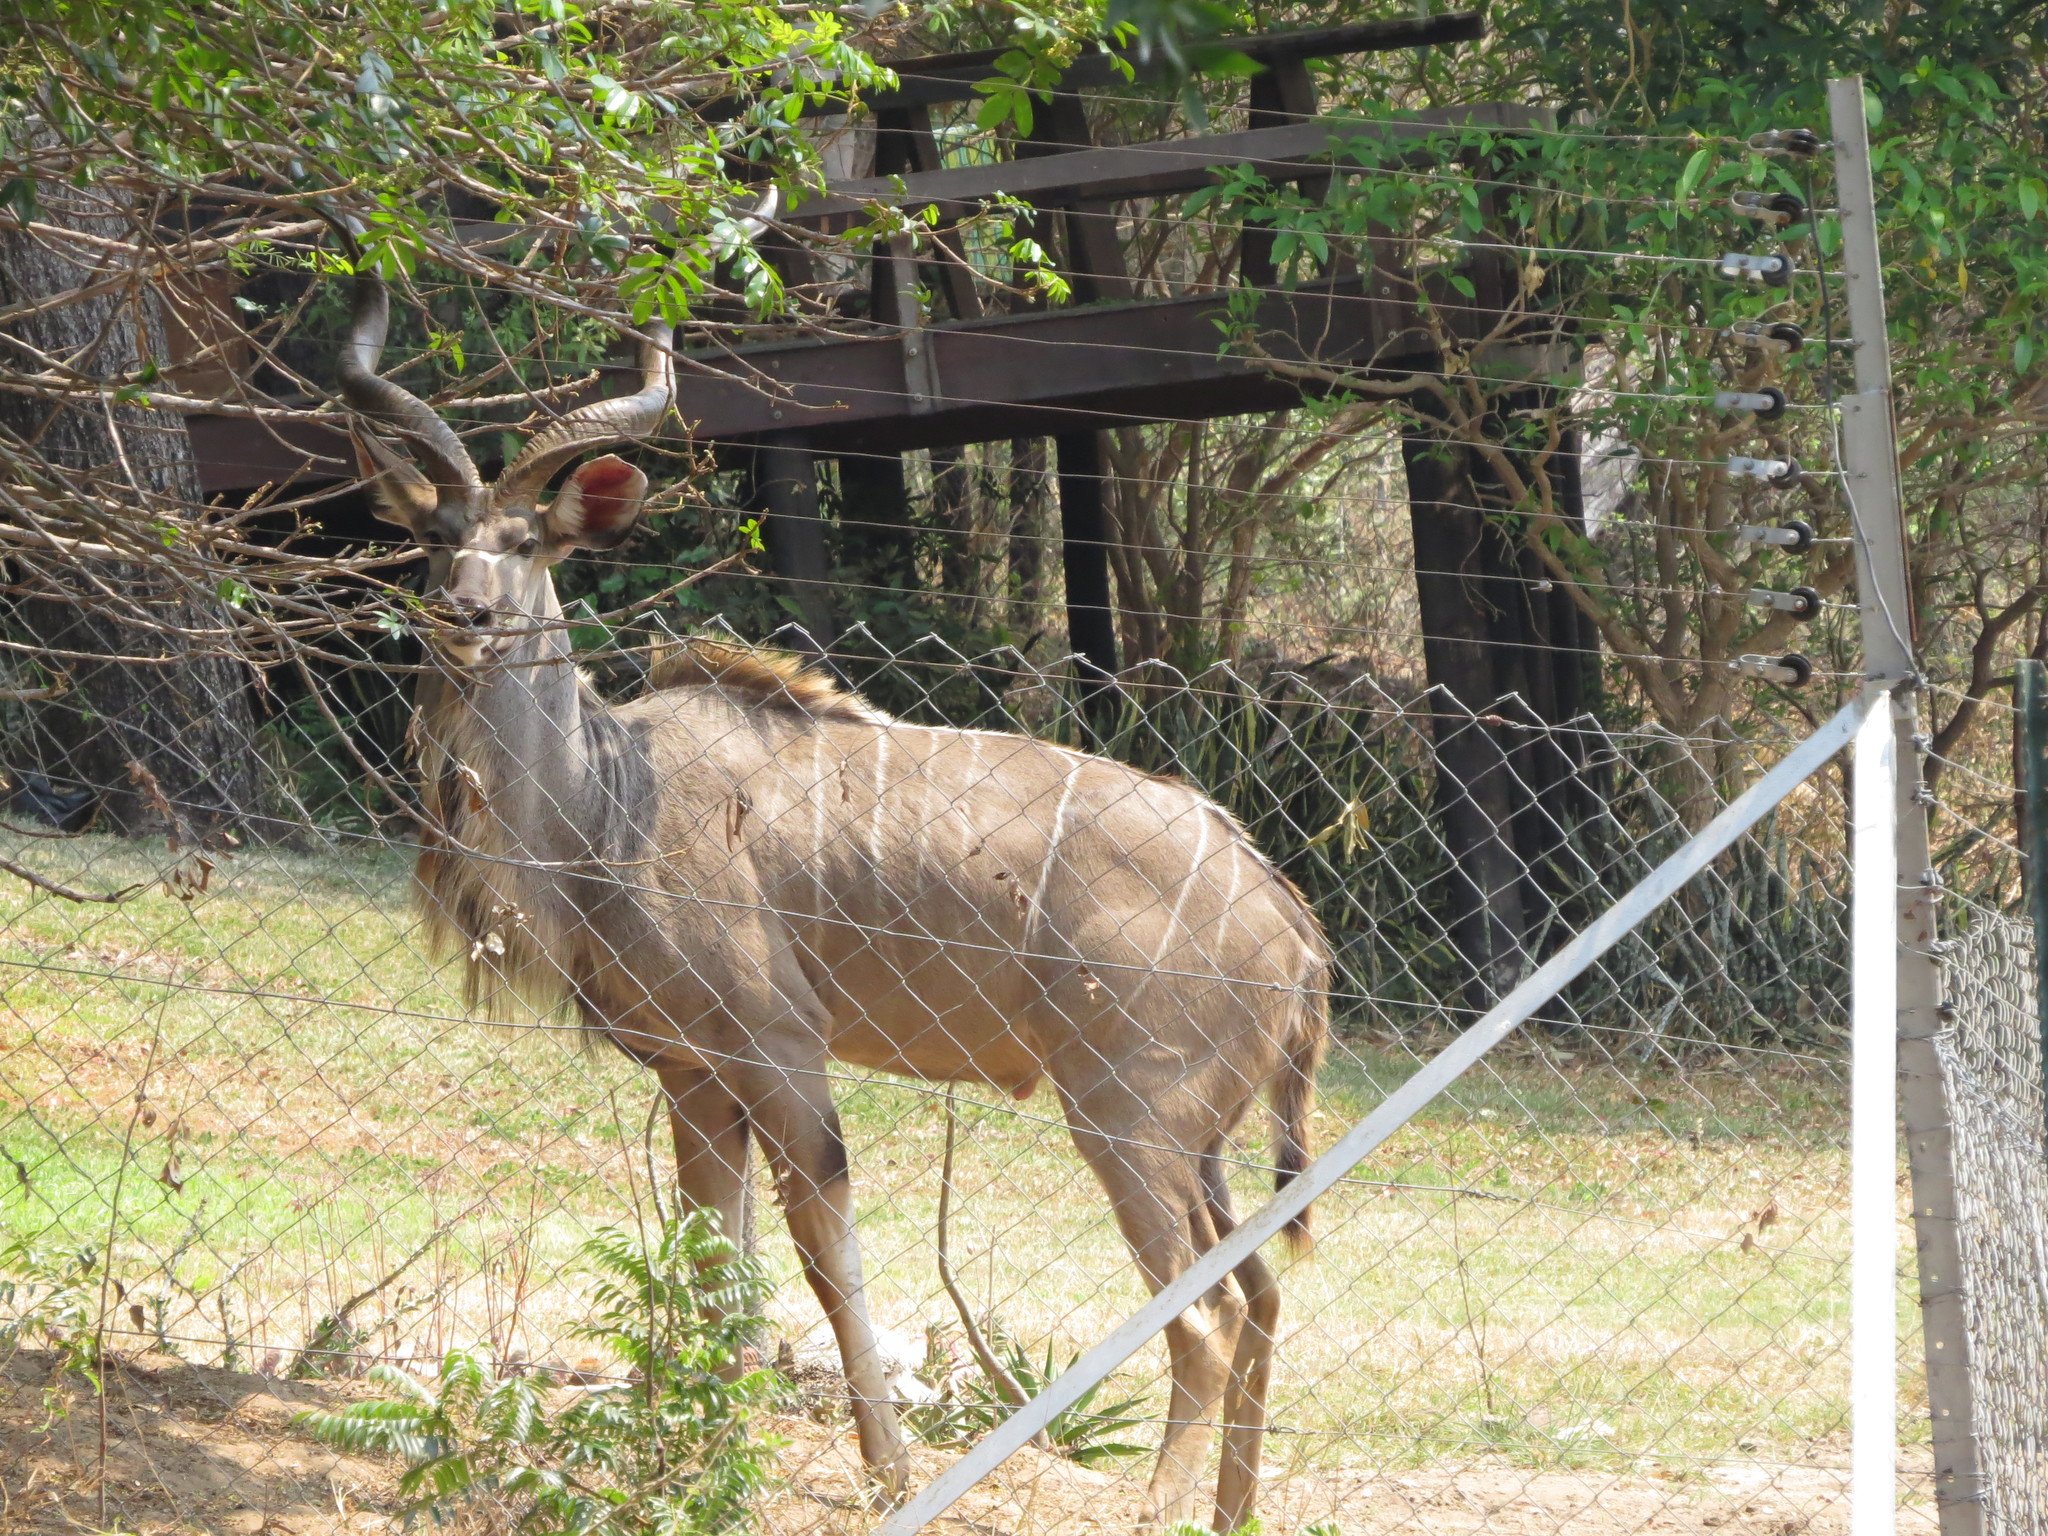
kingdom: Animalia
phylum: Chordata
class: Mammalia
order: Artiodactyla
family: Bovidae
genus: Tragelaphus
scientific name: Tragelaphus strepsiceros
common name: Greater kudu
